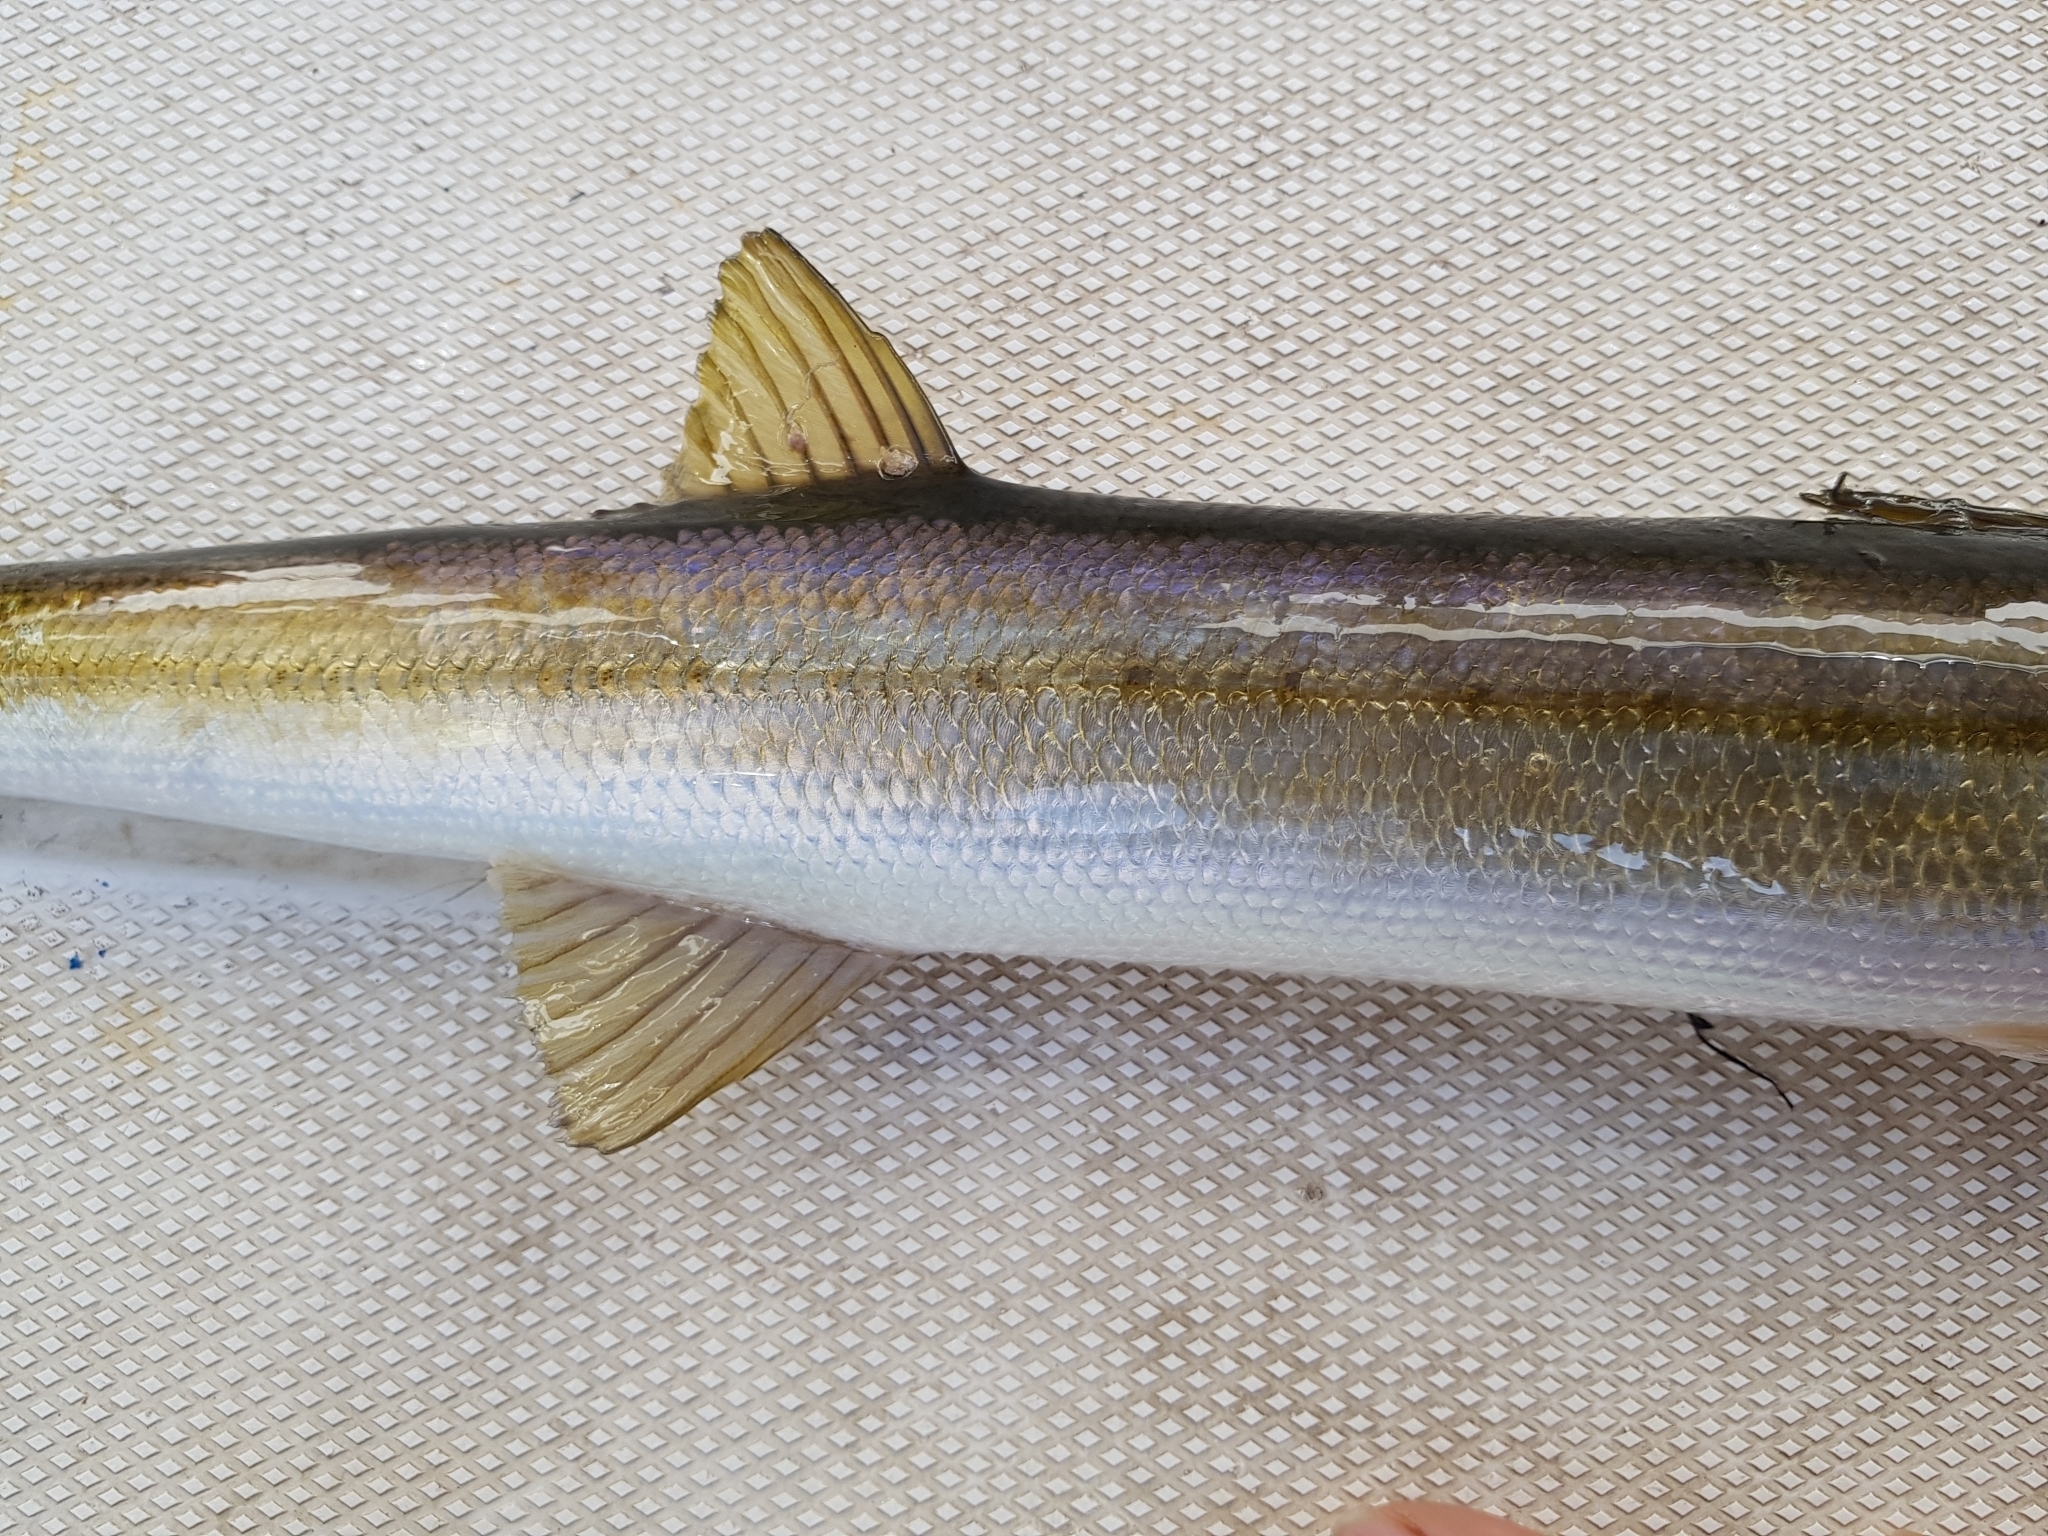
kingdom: Animalia
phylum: Chordata
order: Perciformes
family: Sphyraenidae
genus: Sphyraena
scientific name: Sphyraena novaehollandiae
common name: Arrow barracuda
